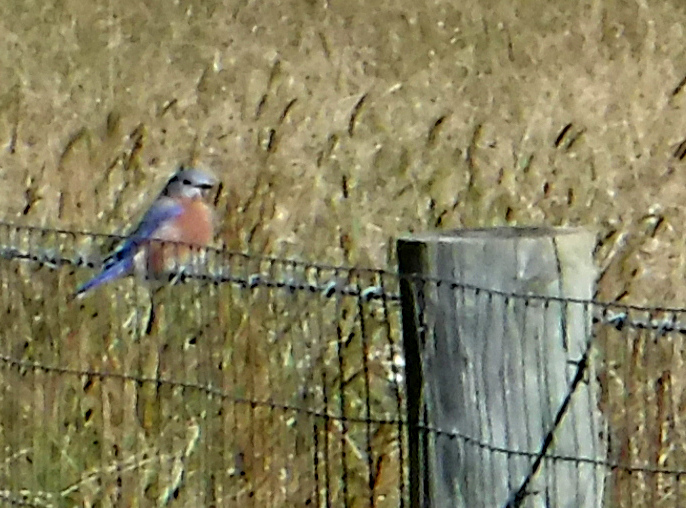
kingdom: Animalia
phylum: Chordata
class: Aves
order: Passeriformes
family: Turdidae
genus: Sialia
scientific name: Sialia sialis
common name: Eastern bluebird
